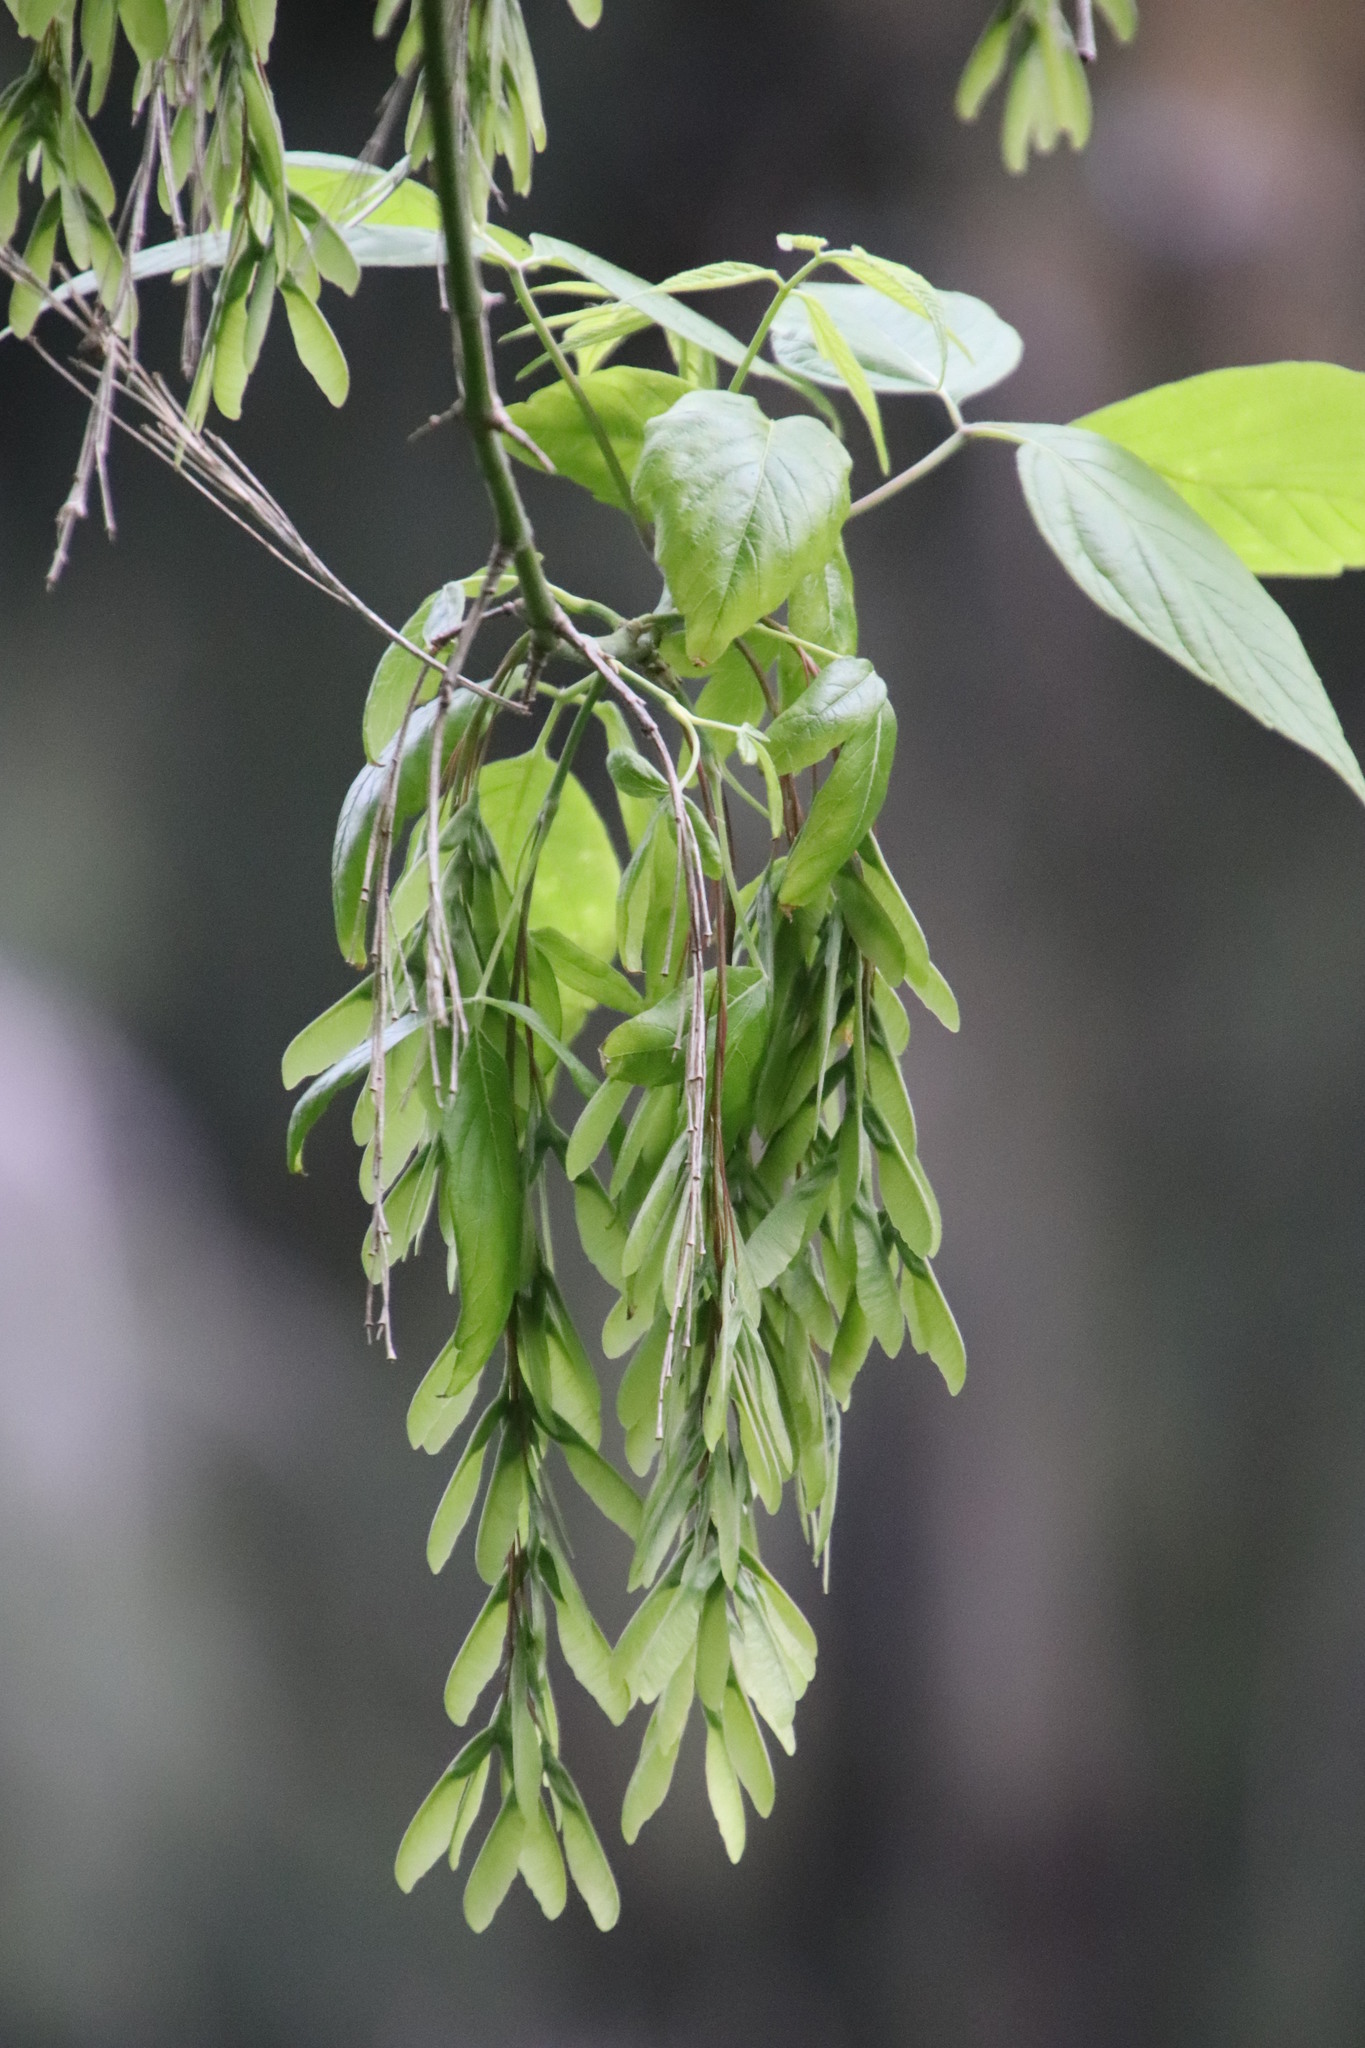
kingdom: Plantae
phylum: Tracheophyta
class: Magnoliopsida
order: Sapindales
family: Sapindaceae
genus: Acer
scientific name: Acer negundo
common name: Ashleaf maple
